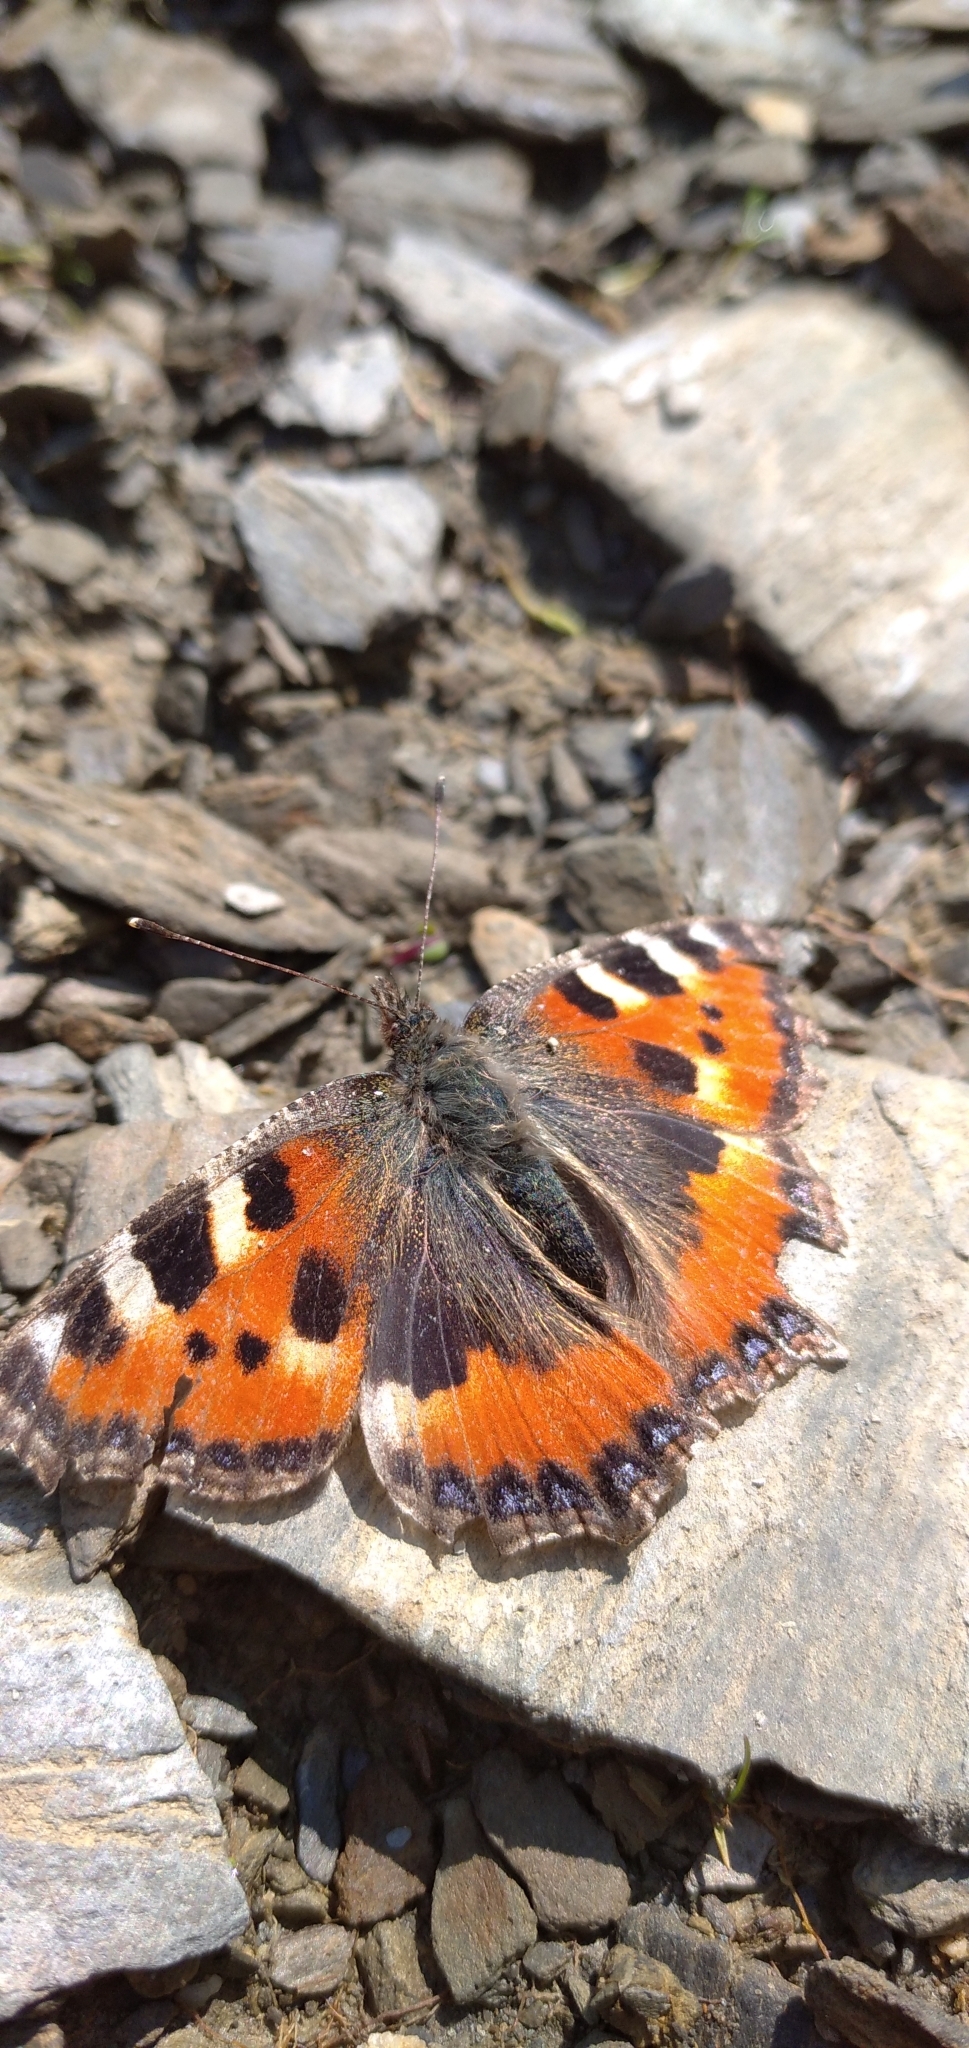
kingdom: Animalia
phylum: Arthropoda
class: Insecta
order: Lepidoptera
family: Nymphalidae
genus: Aglais
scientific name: Aglais urticae
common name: Small tortoiseshell
